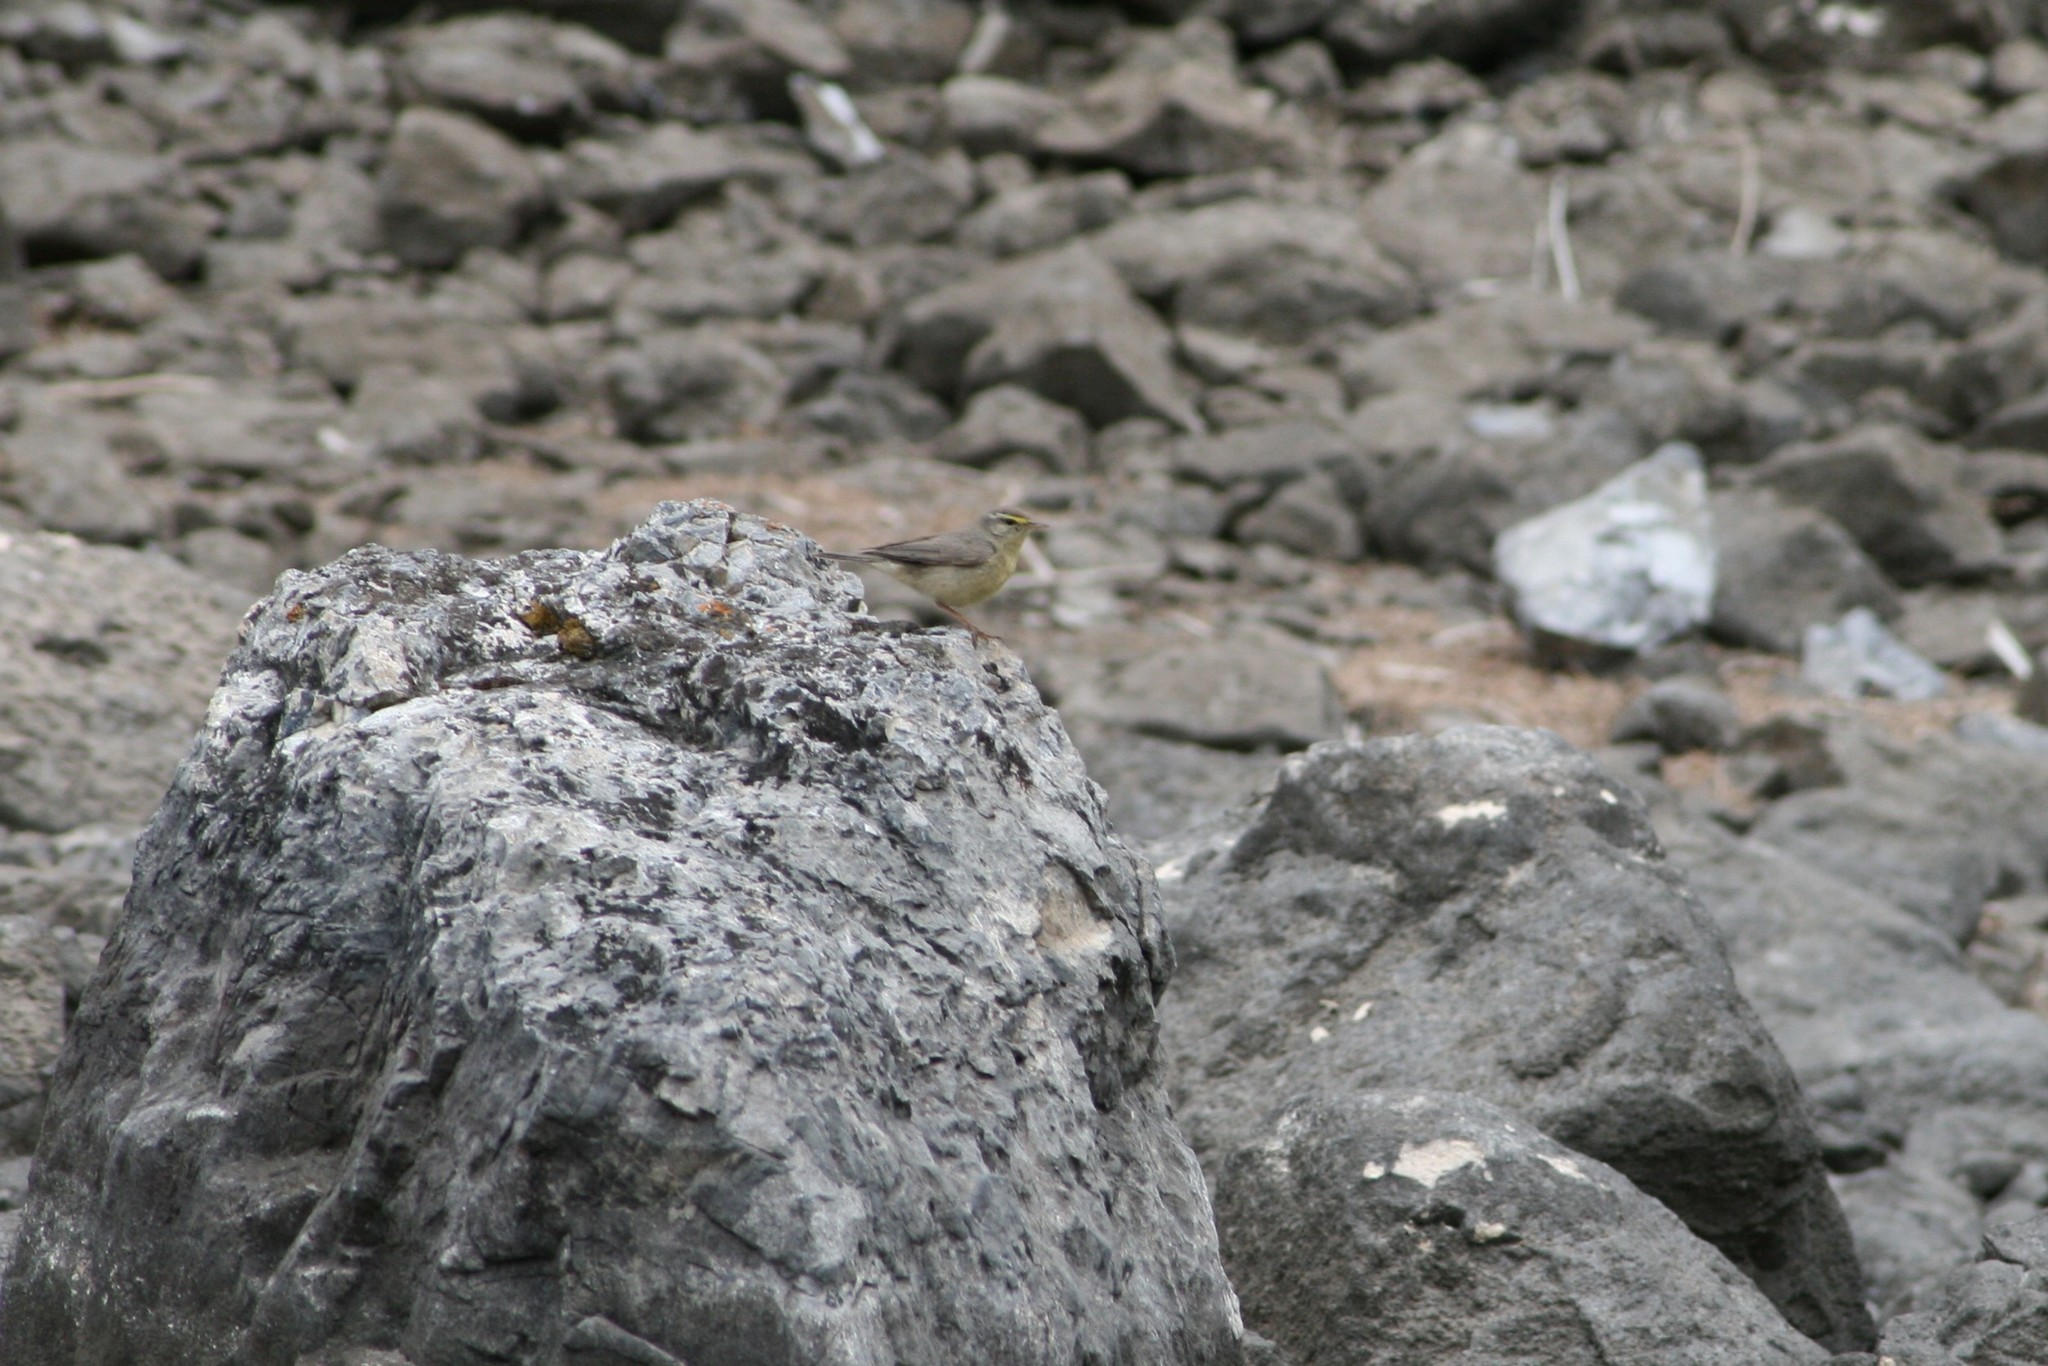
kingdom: Animalia
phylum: Chordata
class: Aves
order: Passeriformes
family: Phylloscopidae
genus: Phylloscopus
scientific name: Phylloscopus griseolus
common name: Sulphur-bellied warbler
